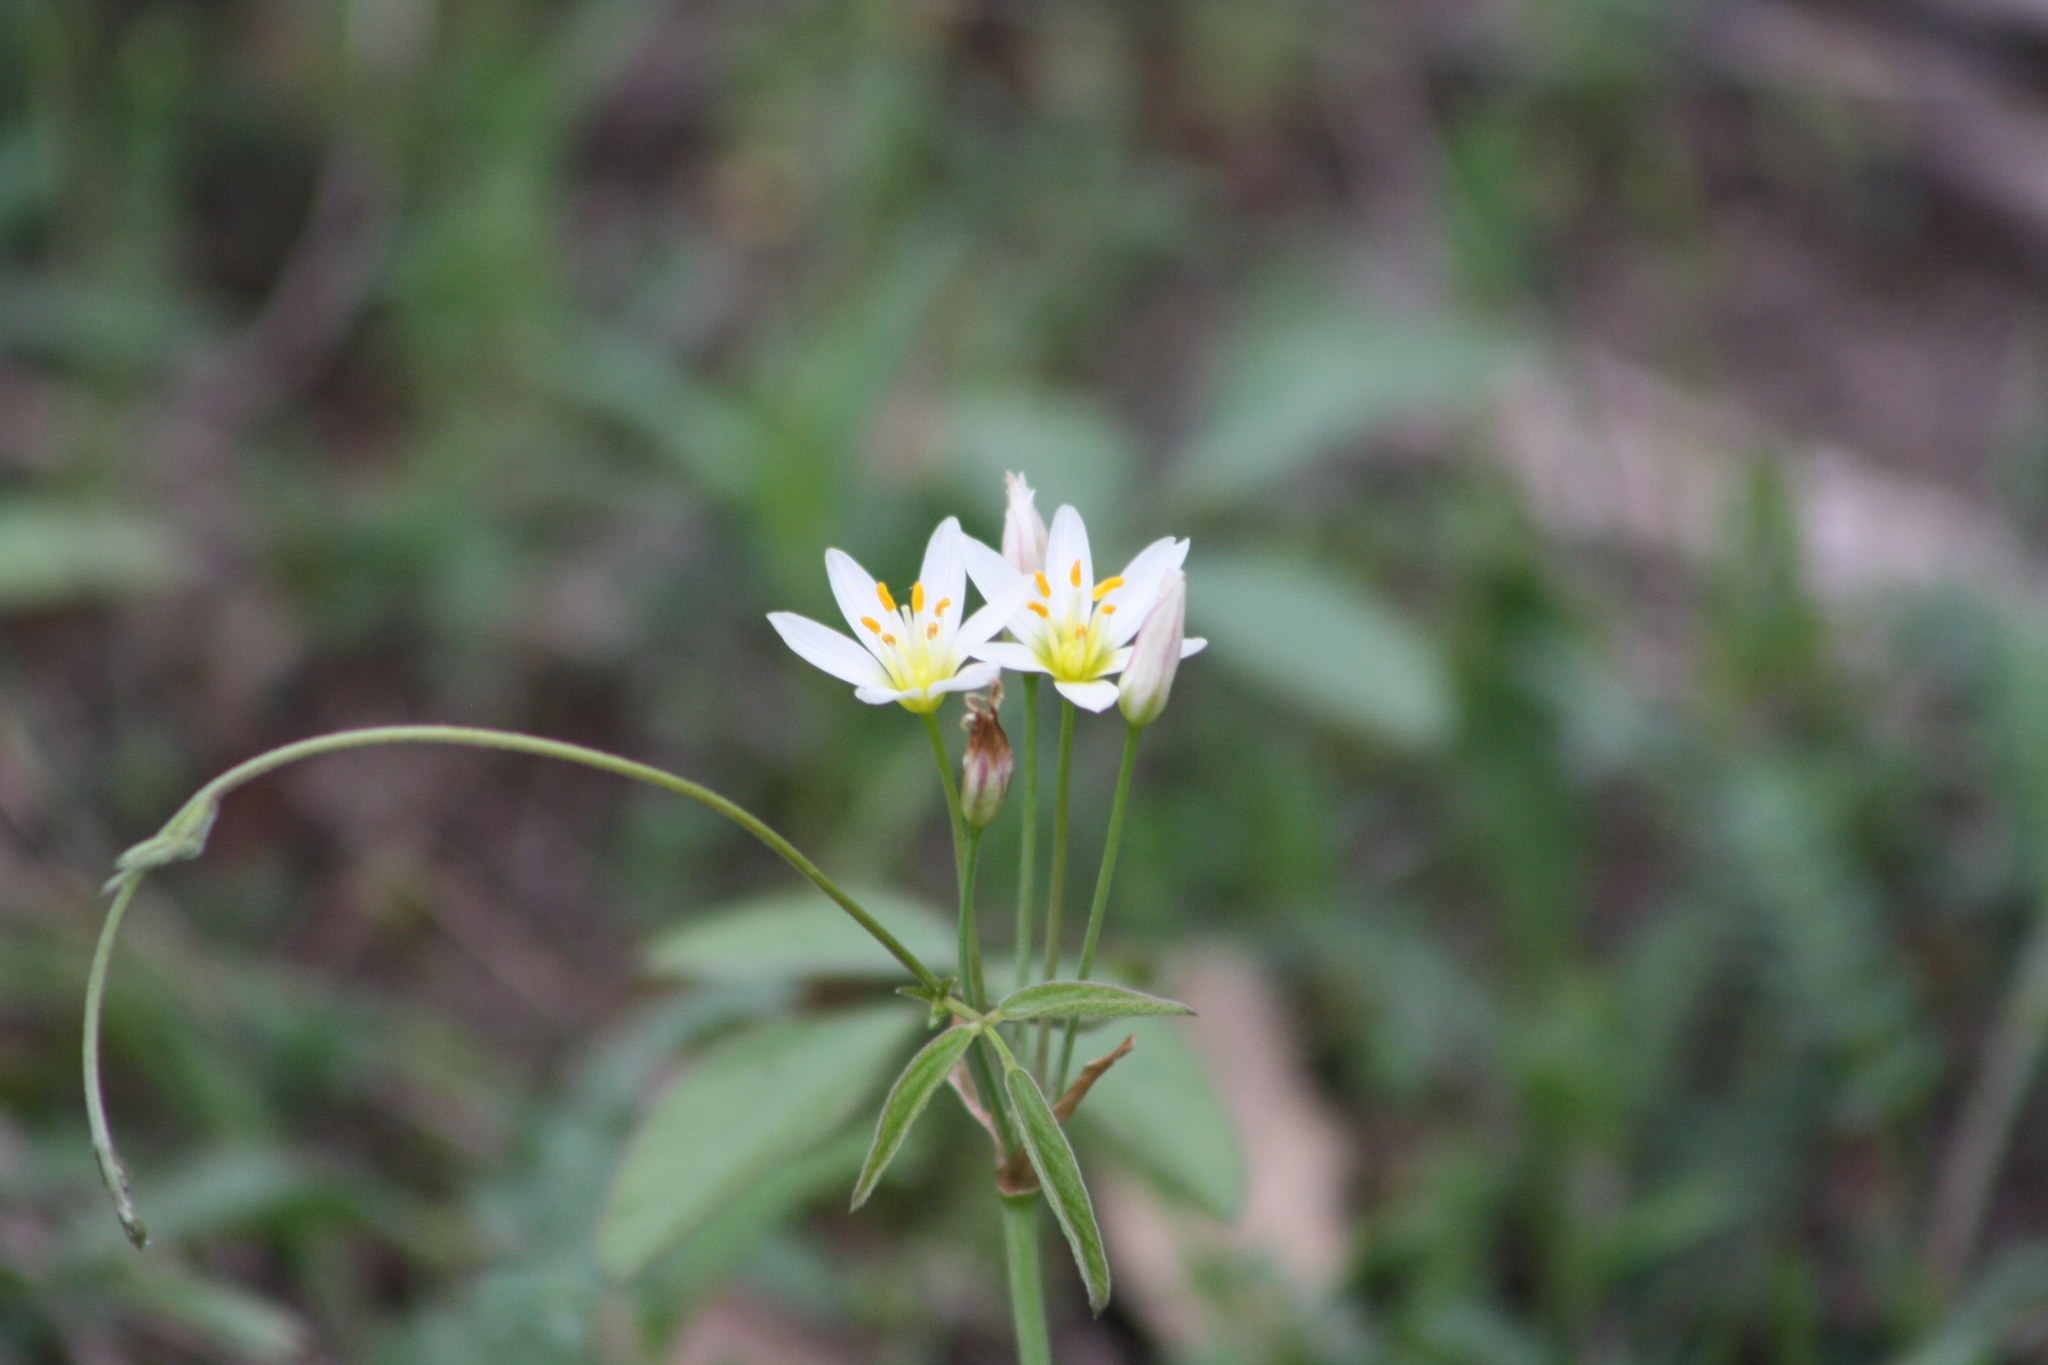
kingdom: Plantae
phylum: Tracheophyta
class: Liliopsida
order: Asparagales
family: Amaryllidaceae
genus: Nothoscordum
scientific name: Nothoscordum bivalve
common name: Crow-poison
